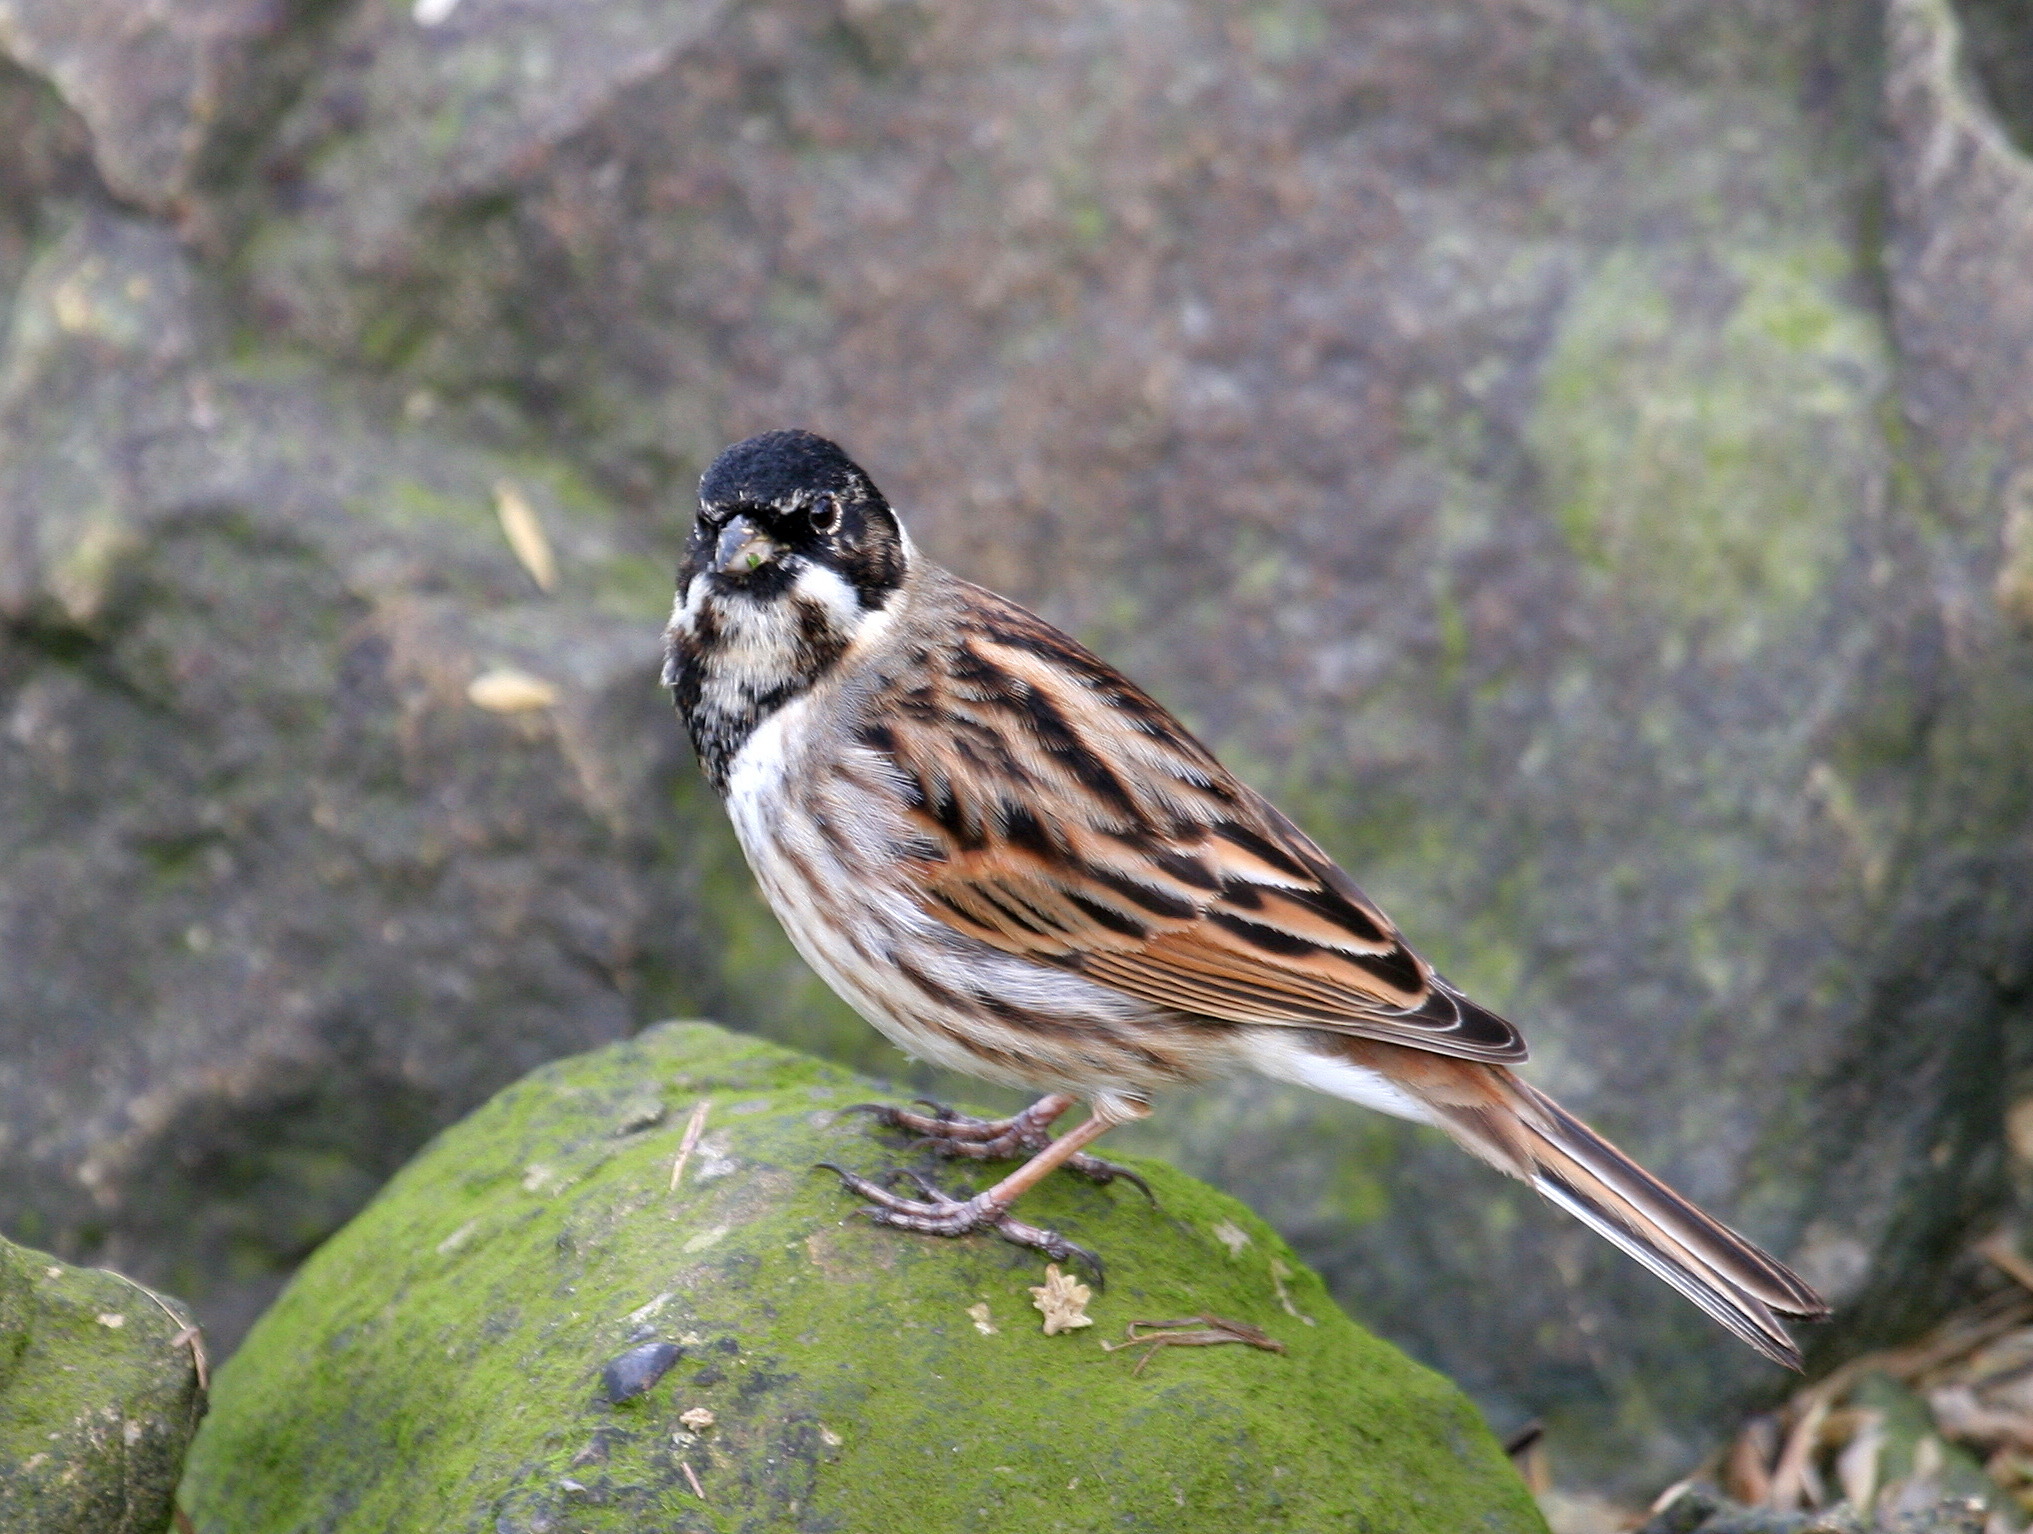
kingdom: Animalia
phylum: Chordata
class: Aves
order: Passeriformes
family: Emberizidae
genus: Emberiza
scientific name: Emberiza schoeniclus
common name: Reed bunting
